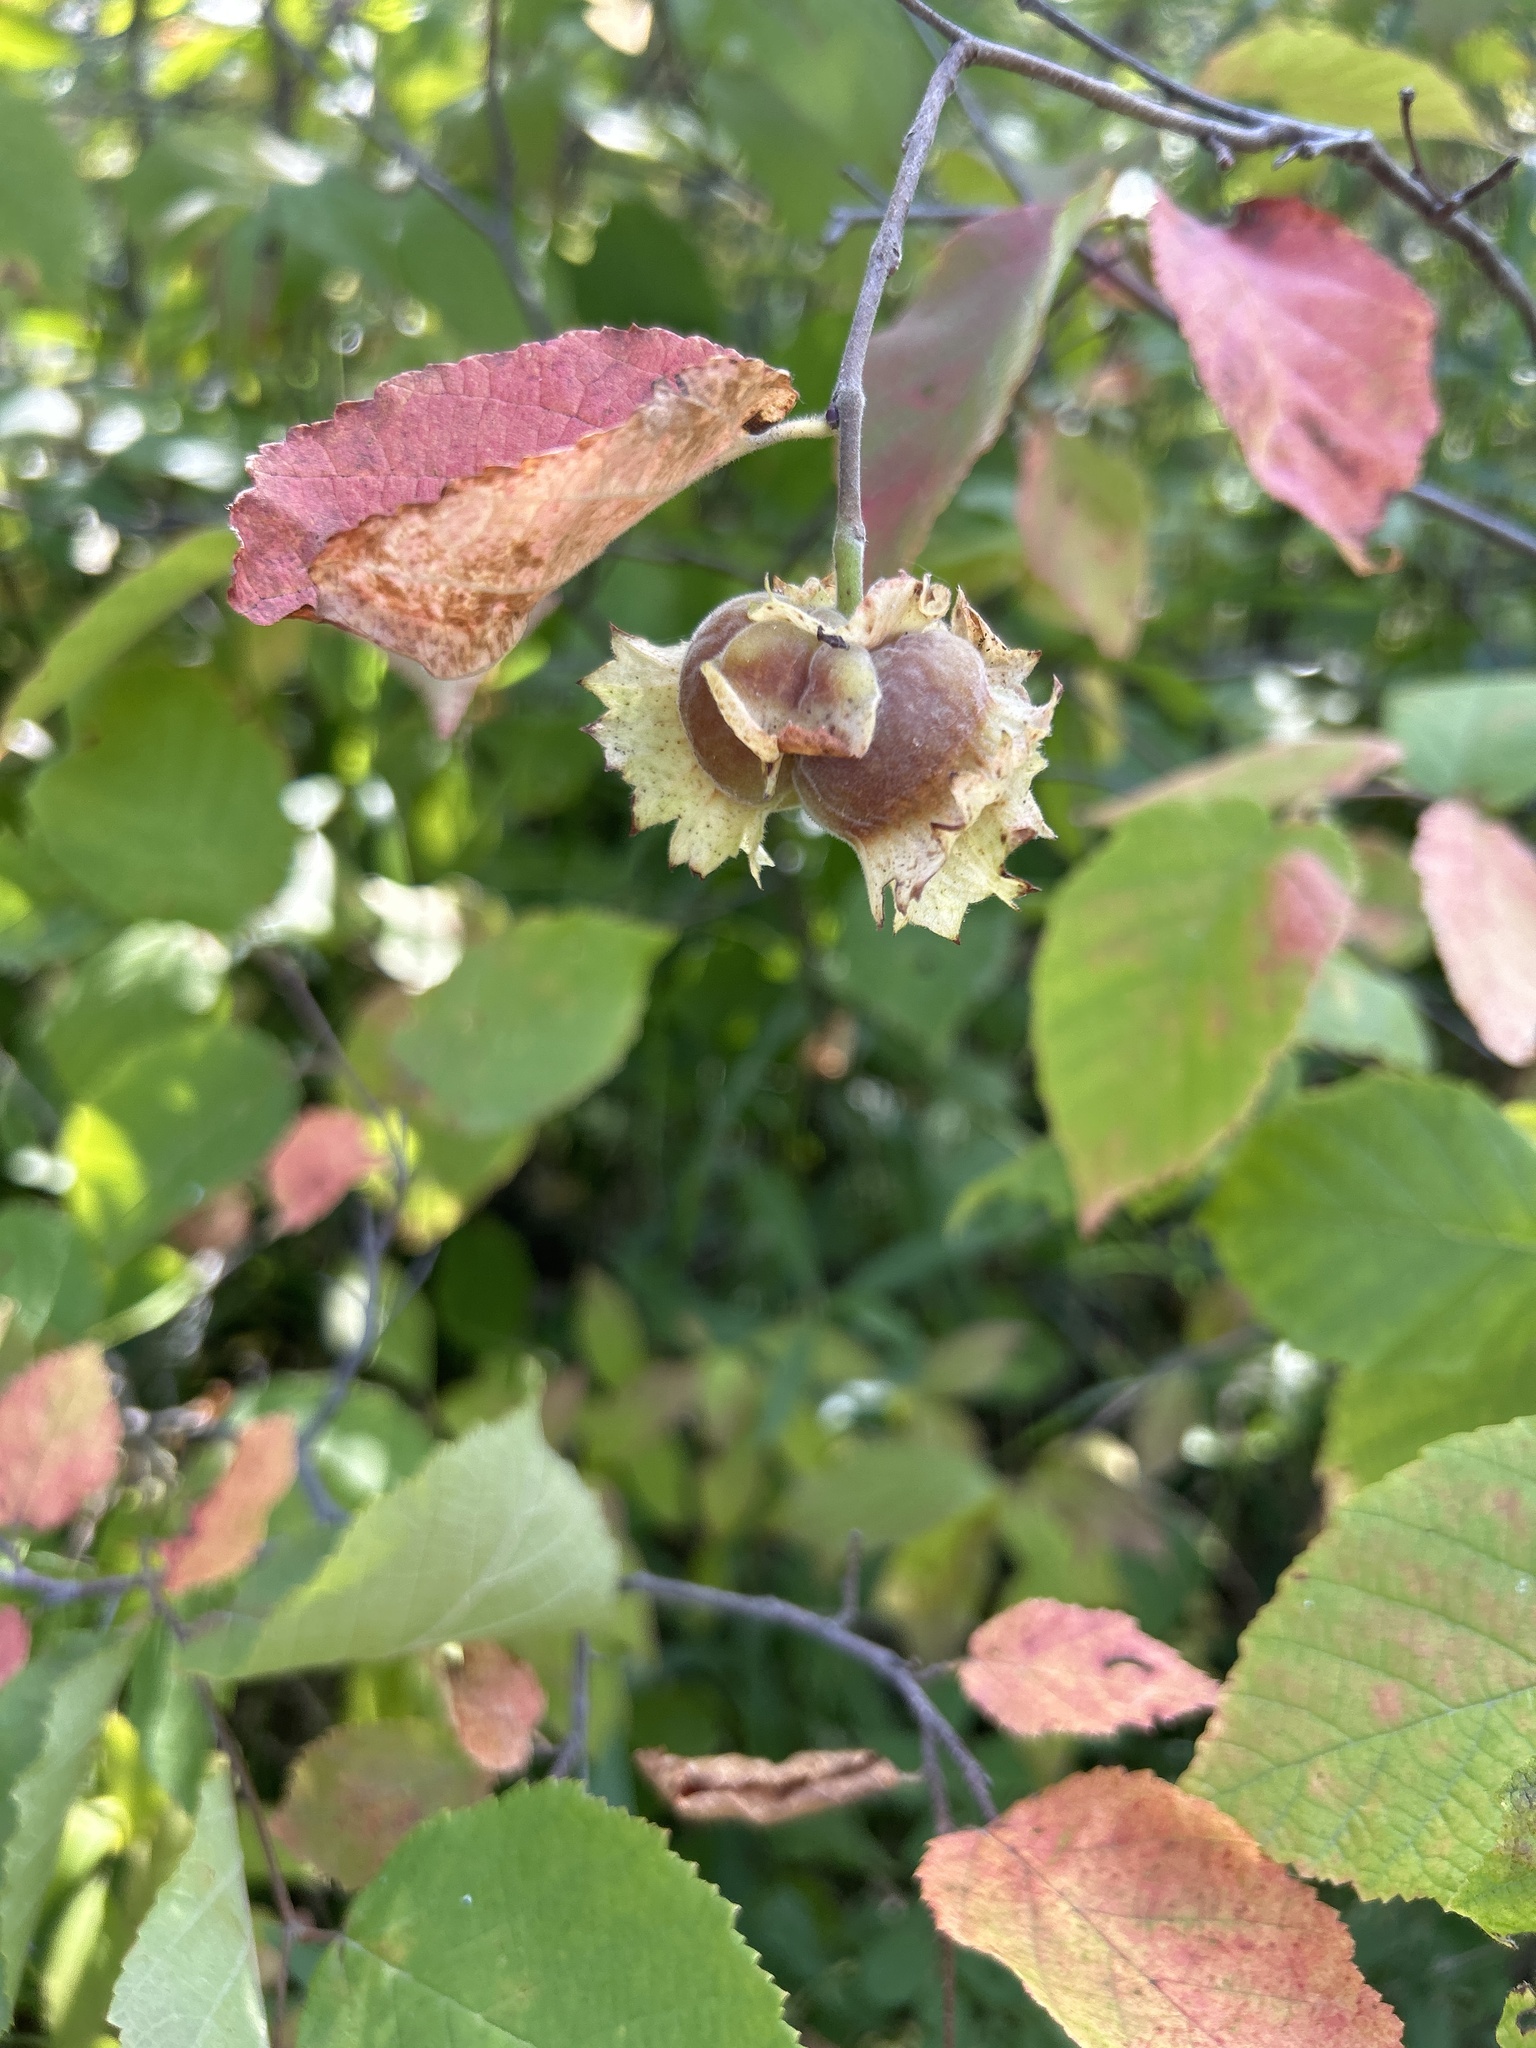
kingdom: Plantae
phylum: Tracheophyta
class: Magnoliopsida
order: Fagales
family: Betulaceae
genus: Corylus
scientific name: Corylus americana
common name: American hazel
